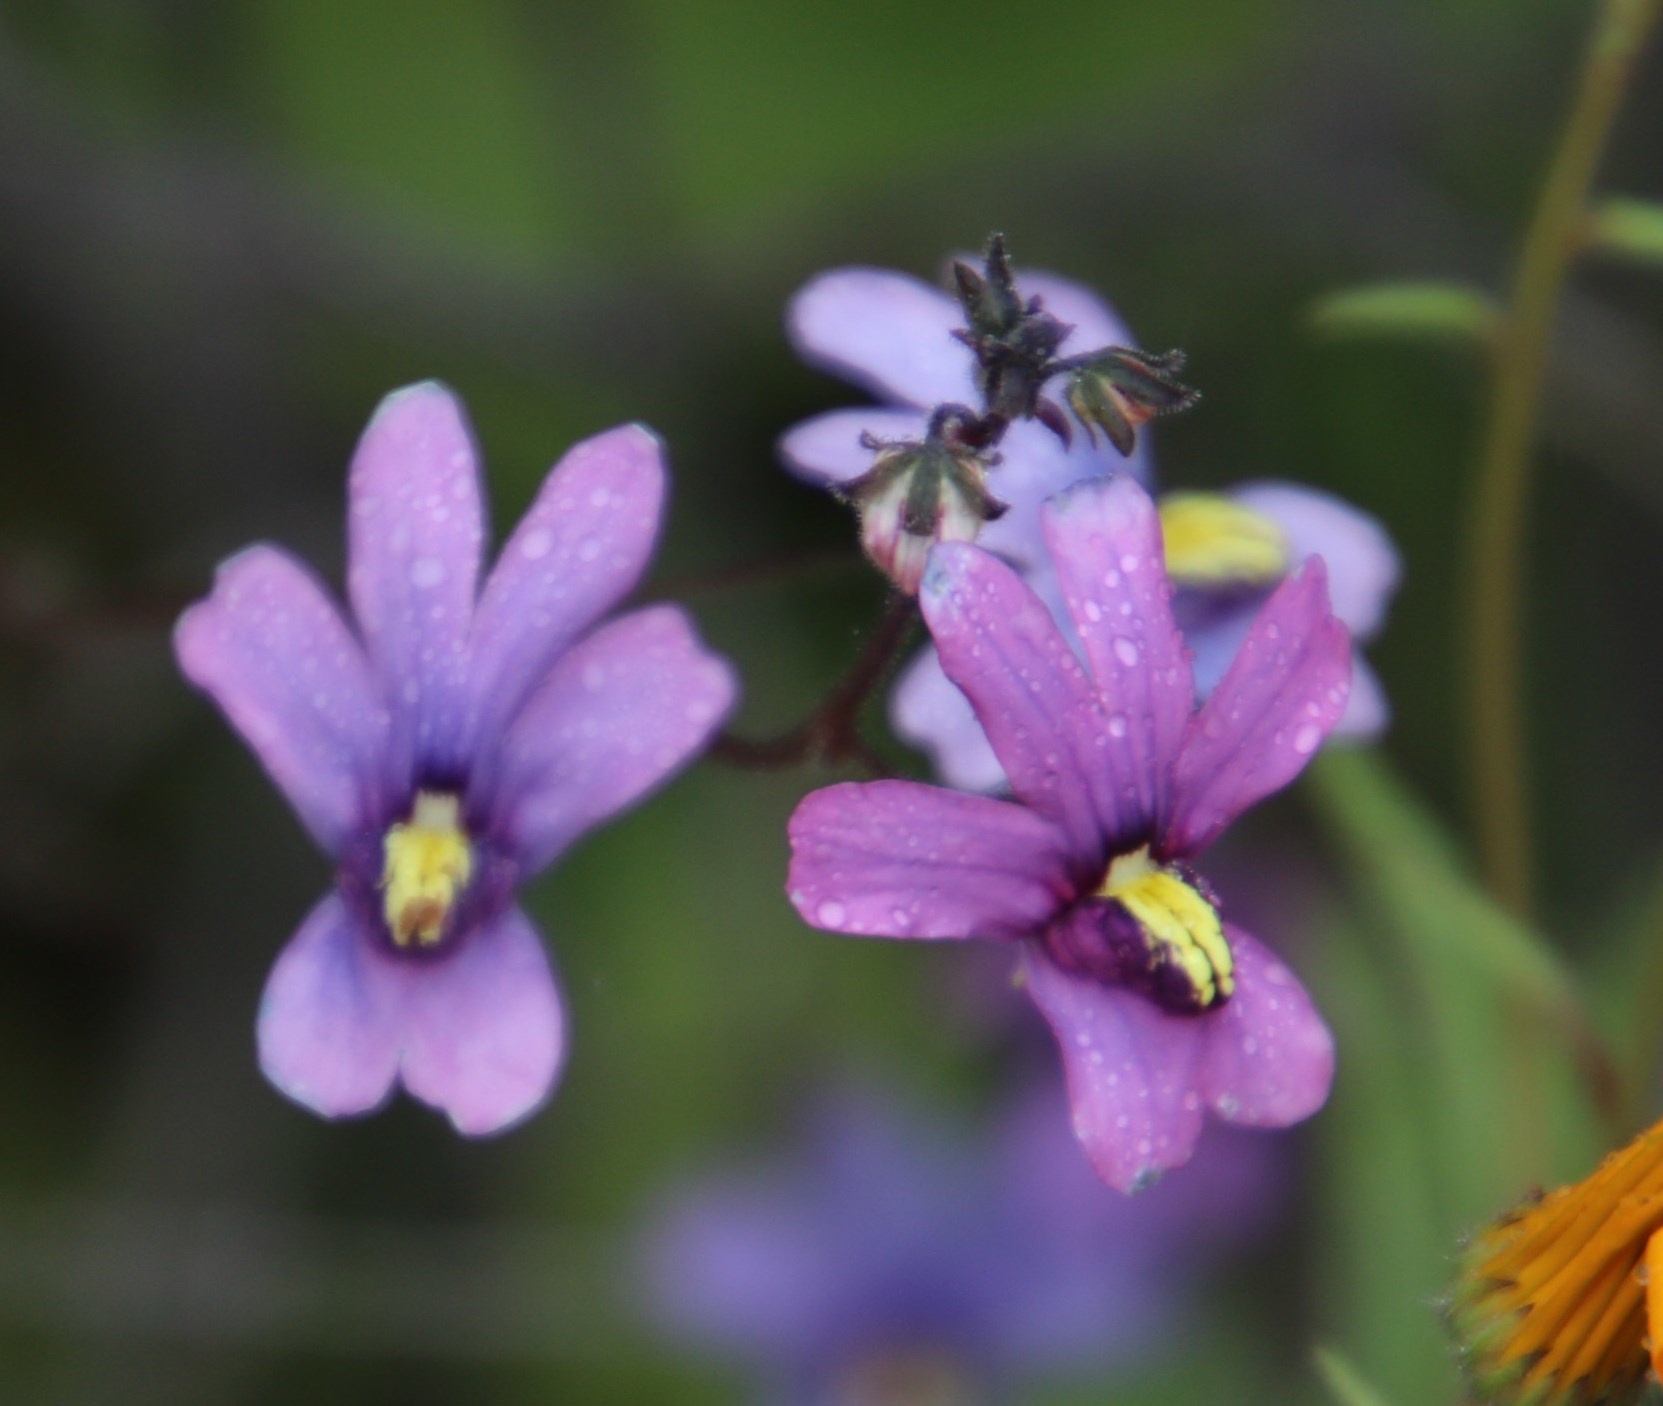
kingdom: Plantae
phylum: Tracheophyta
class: Magnoliopsida
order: Lamiales
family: Scrophulariaceae
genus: Nemesia
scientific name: Nemesia versicolor
